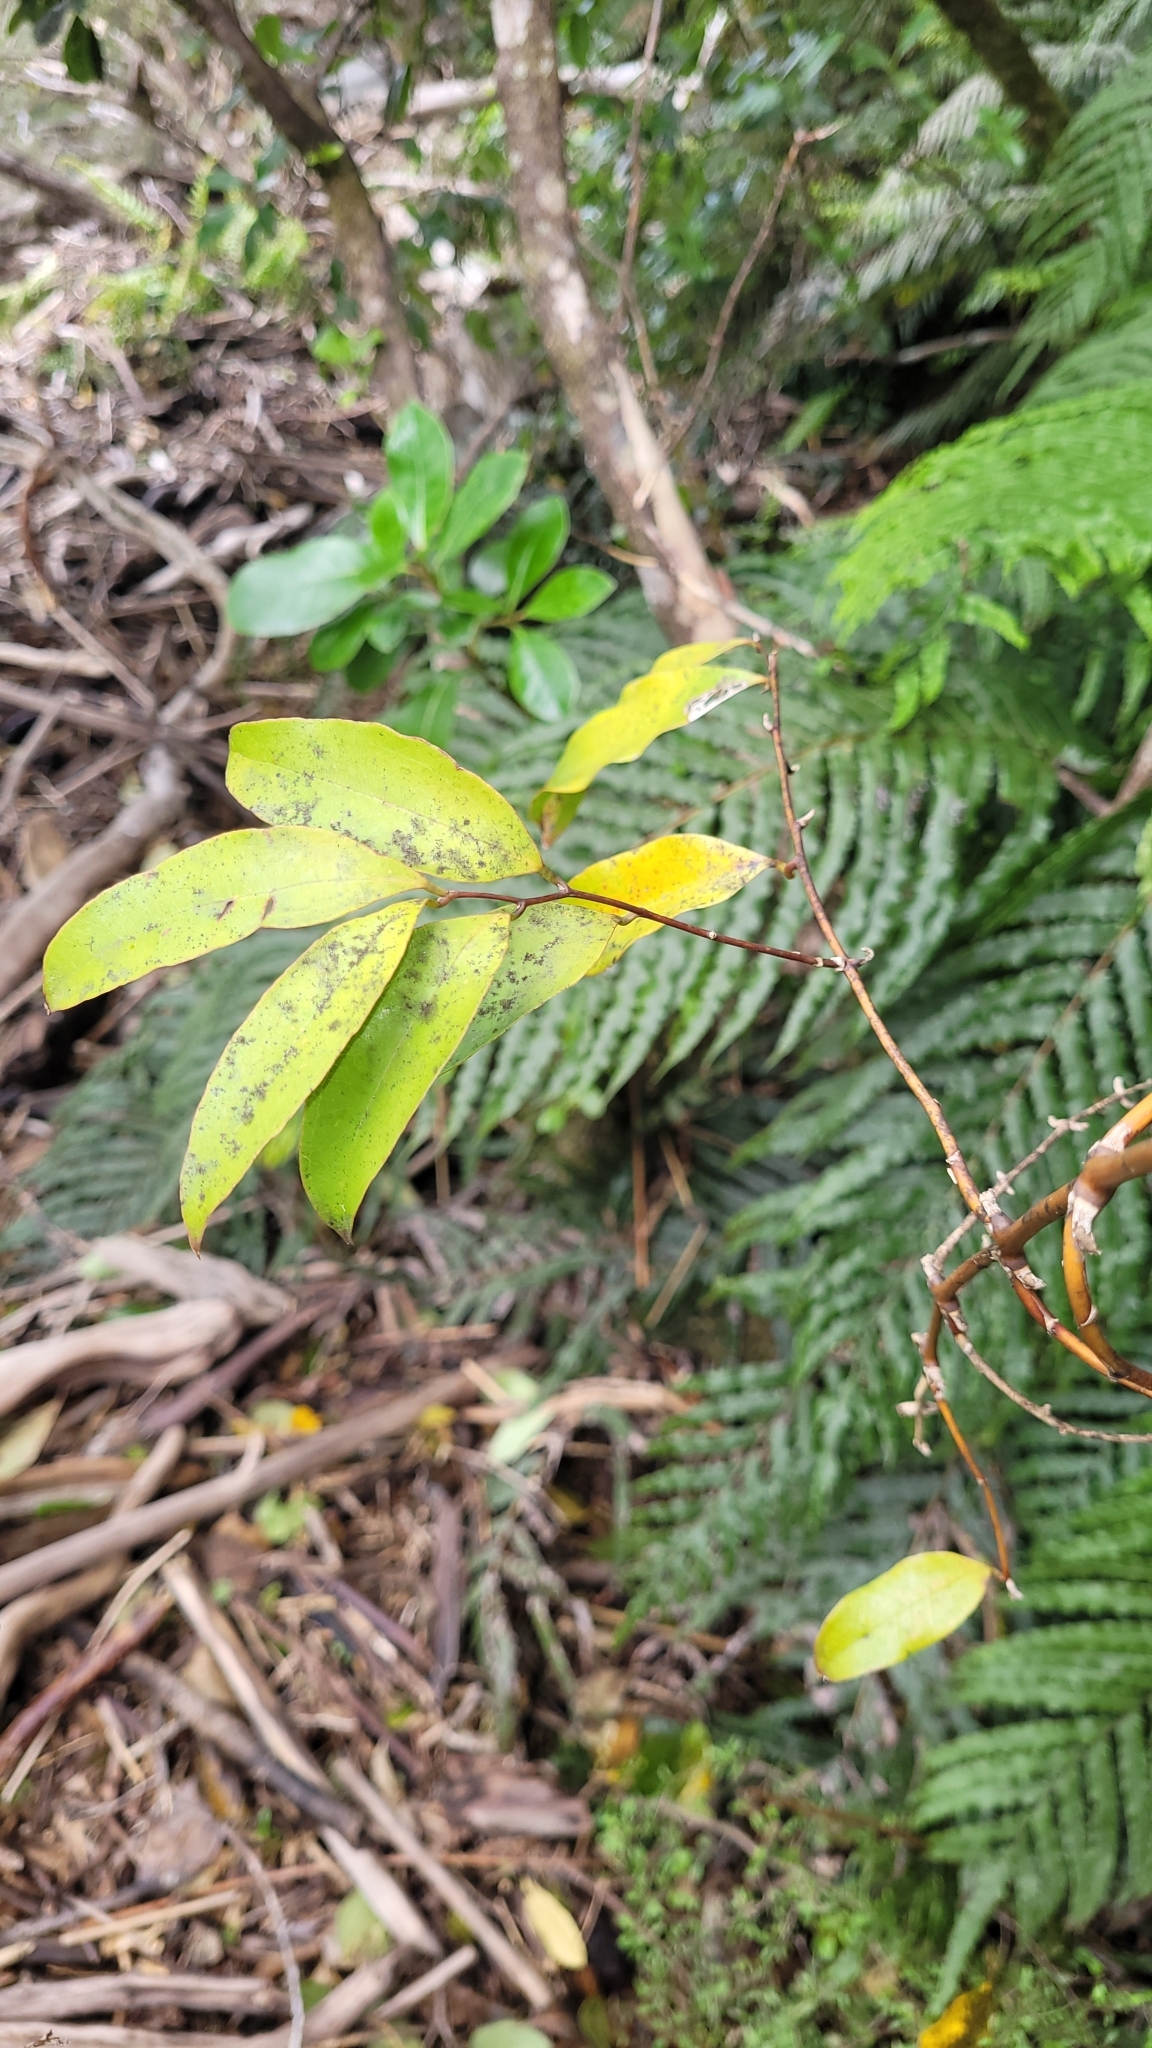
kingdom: Plantae
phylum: Tracheophyta
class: Liliopsida
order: Liliales
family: Ripogonaceae
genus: Ripogonum
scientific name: Ripogonum scandens
